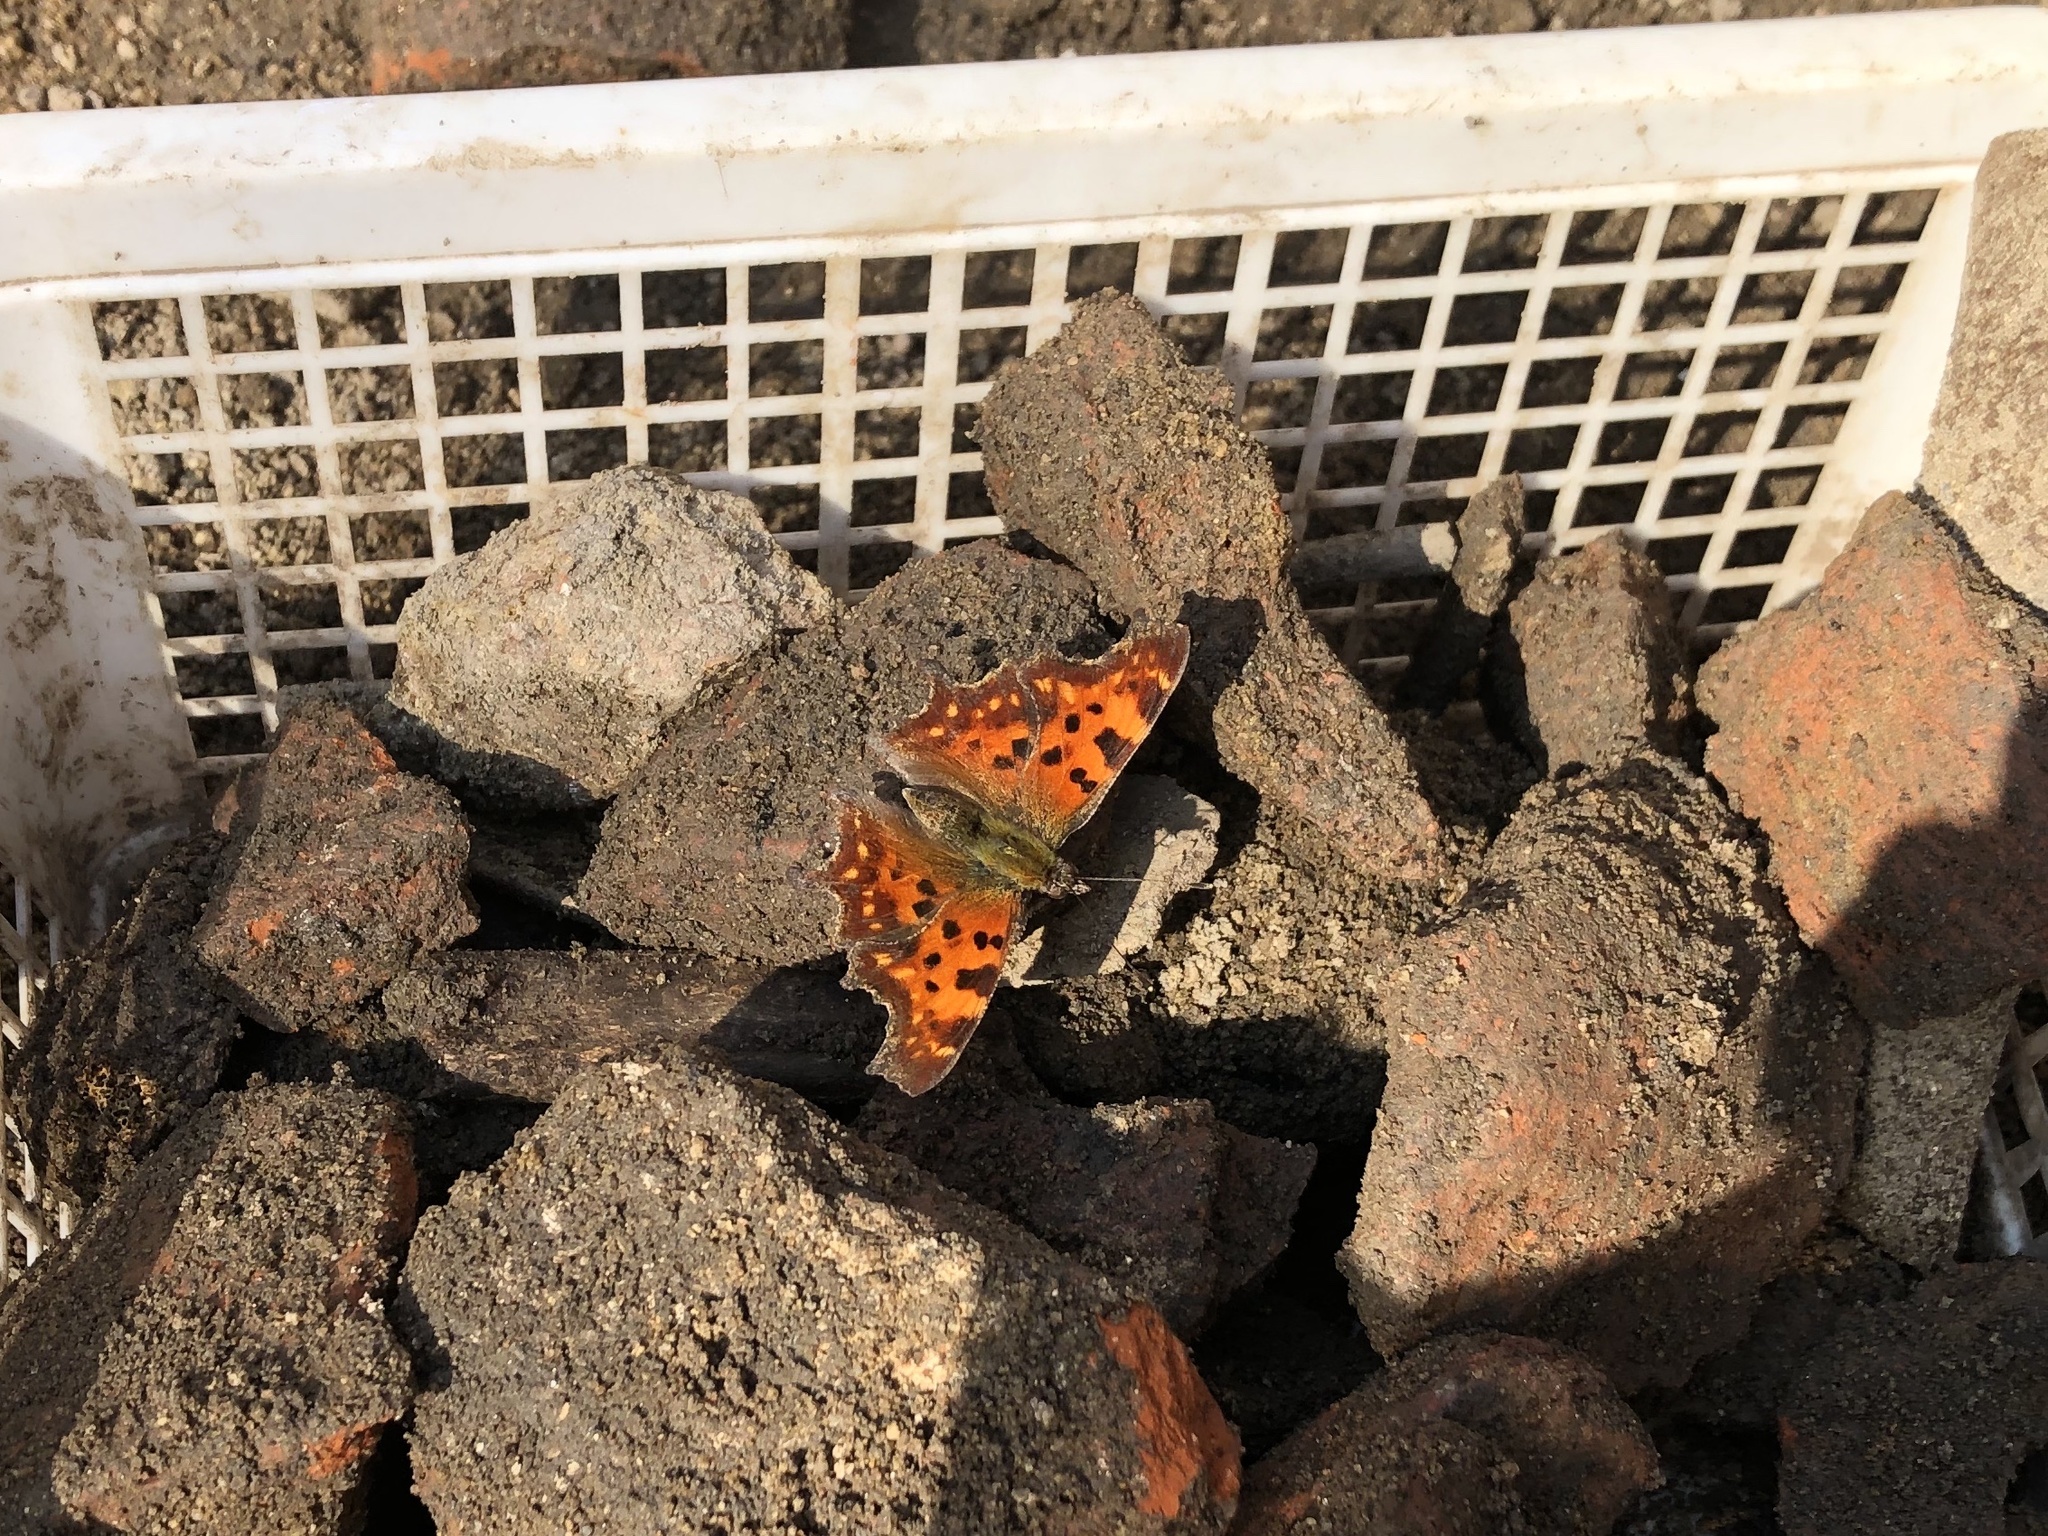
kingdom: Animalia
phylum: Arthropoda
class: Insecta
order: Lepidoptera
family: Nymphalidae
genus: Polygonia
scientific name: Polygonia c-album
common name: Comma
